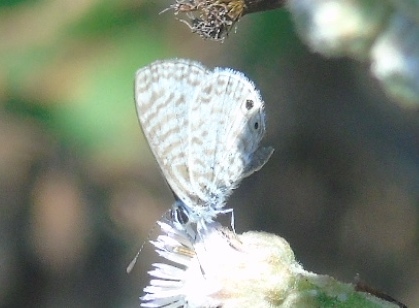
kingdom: Animalia
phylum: Arthropoda
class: Insecta
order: Lepidoptera
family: Lycaenidae
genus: Leptotes
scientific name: Leptotes cassius
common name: Cassius blue
